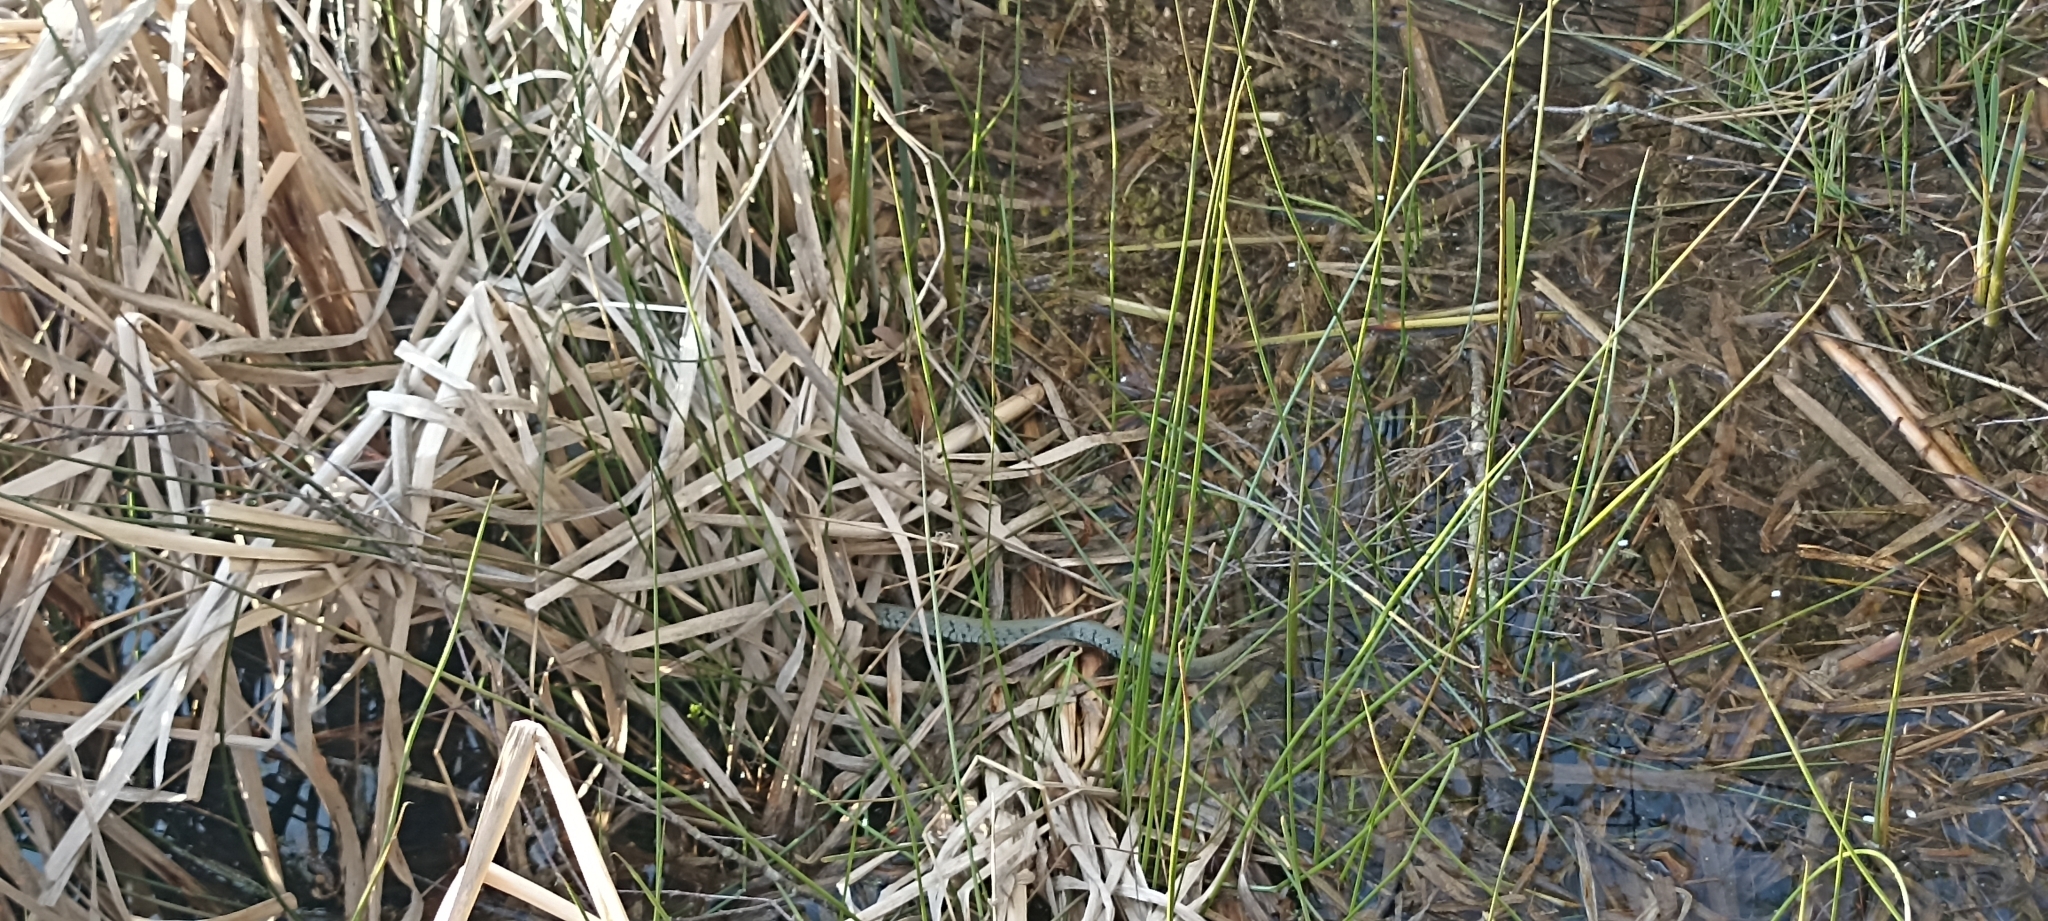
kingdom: Animalia
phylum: Chordata
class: Squamata
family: Colubridae
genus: Natrix
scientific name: Natrix helvetica
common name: Banded grass snake
